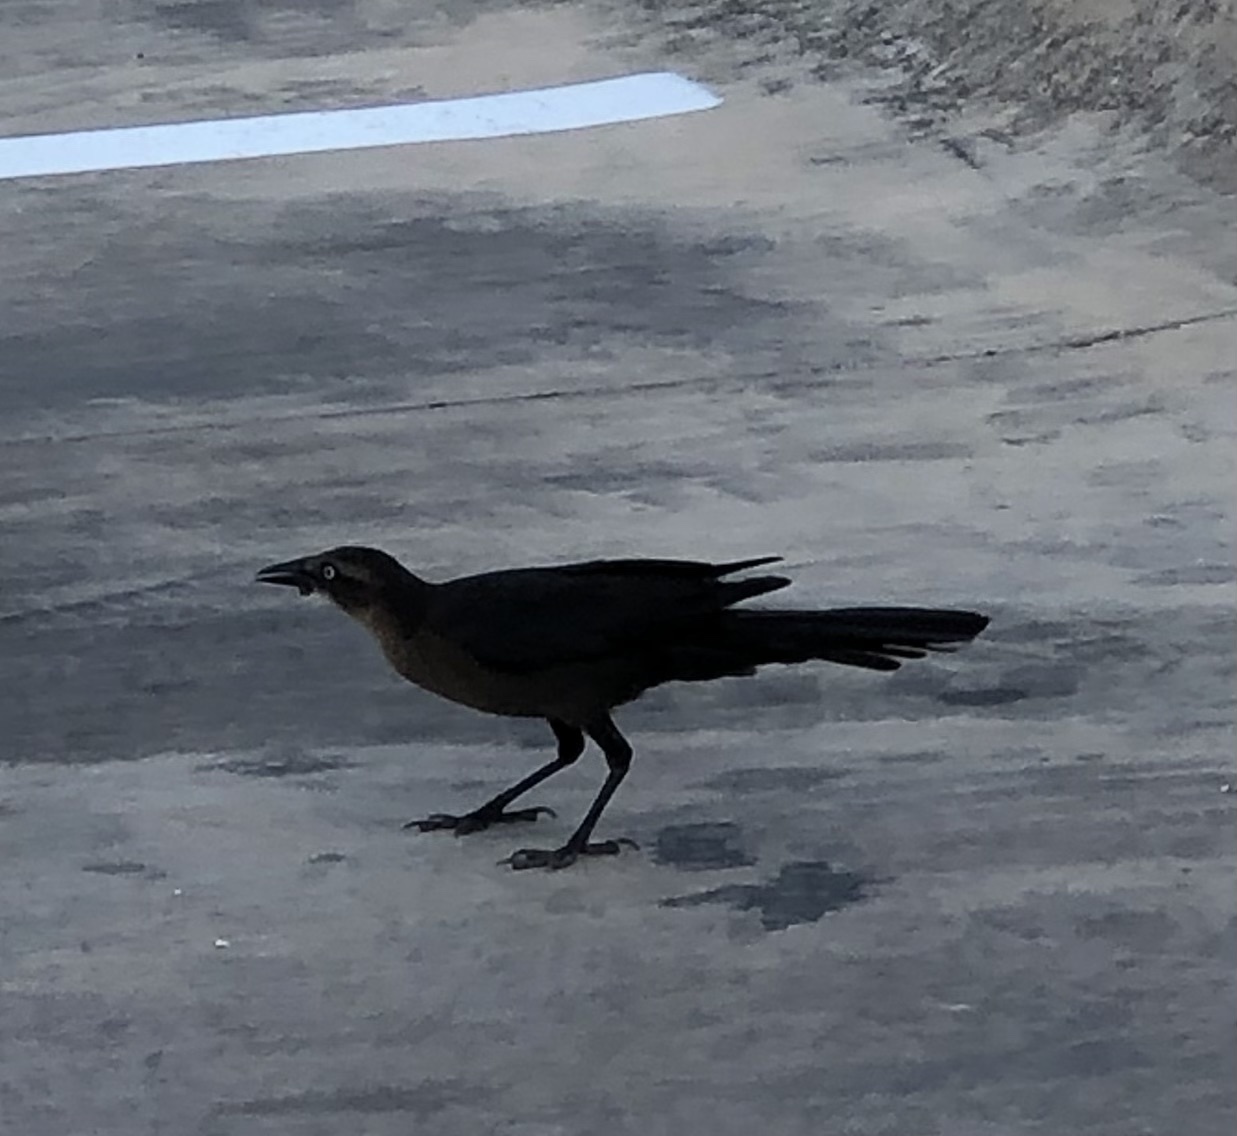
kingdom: Animalia
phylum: Chordata
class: Aves
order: Passeriformes
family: Icteridae
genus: Quiscalus
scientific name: Quiscalus mexicanus
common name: Great-tailed grackle
